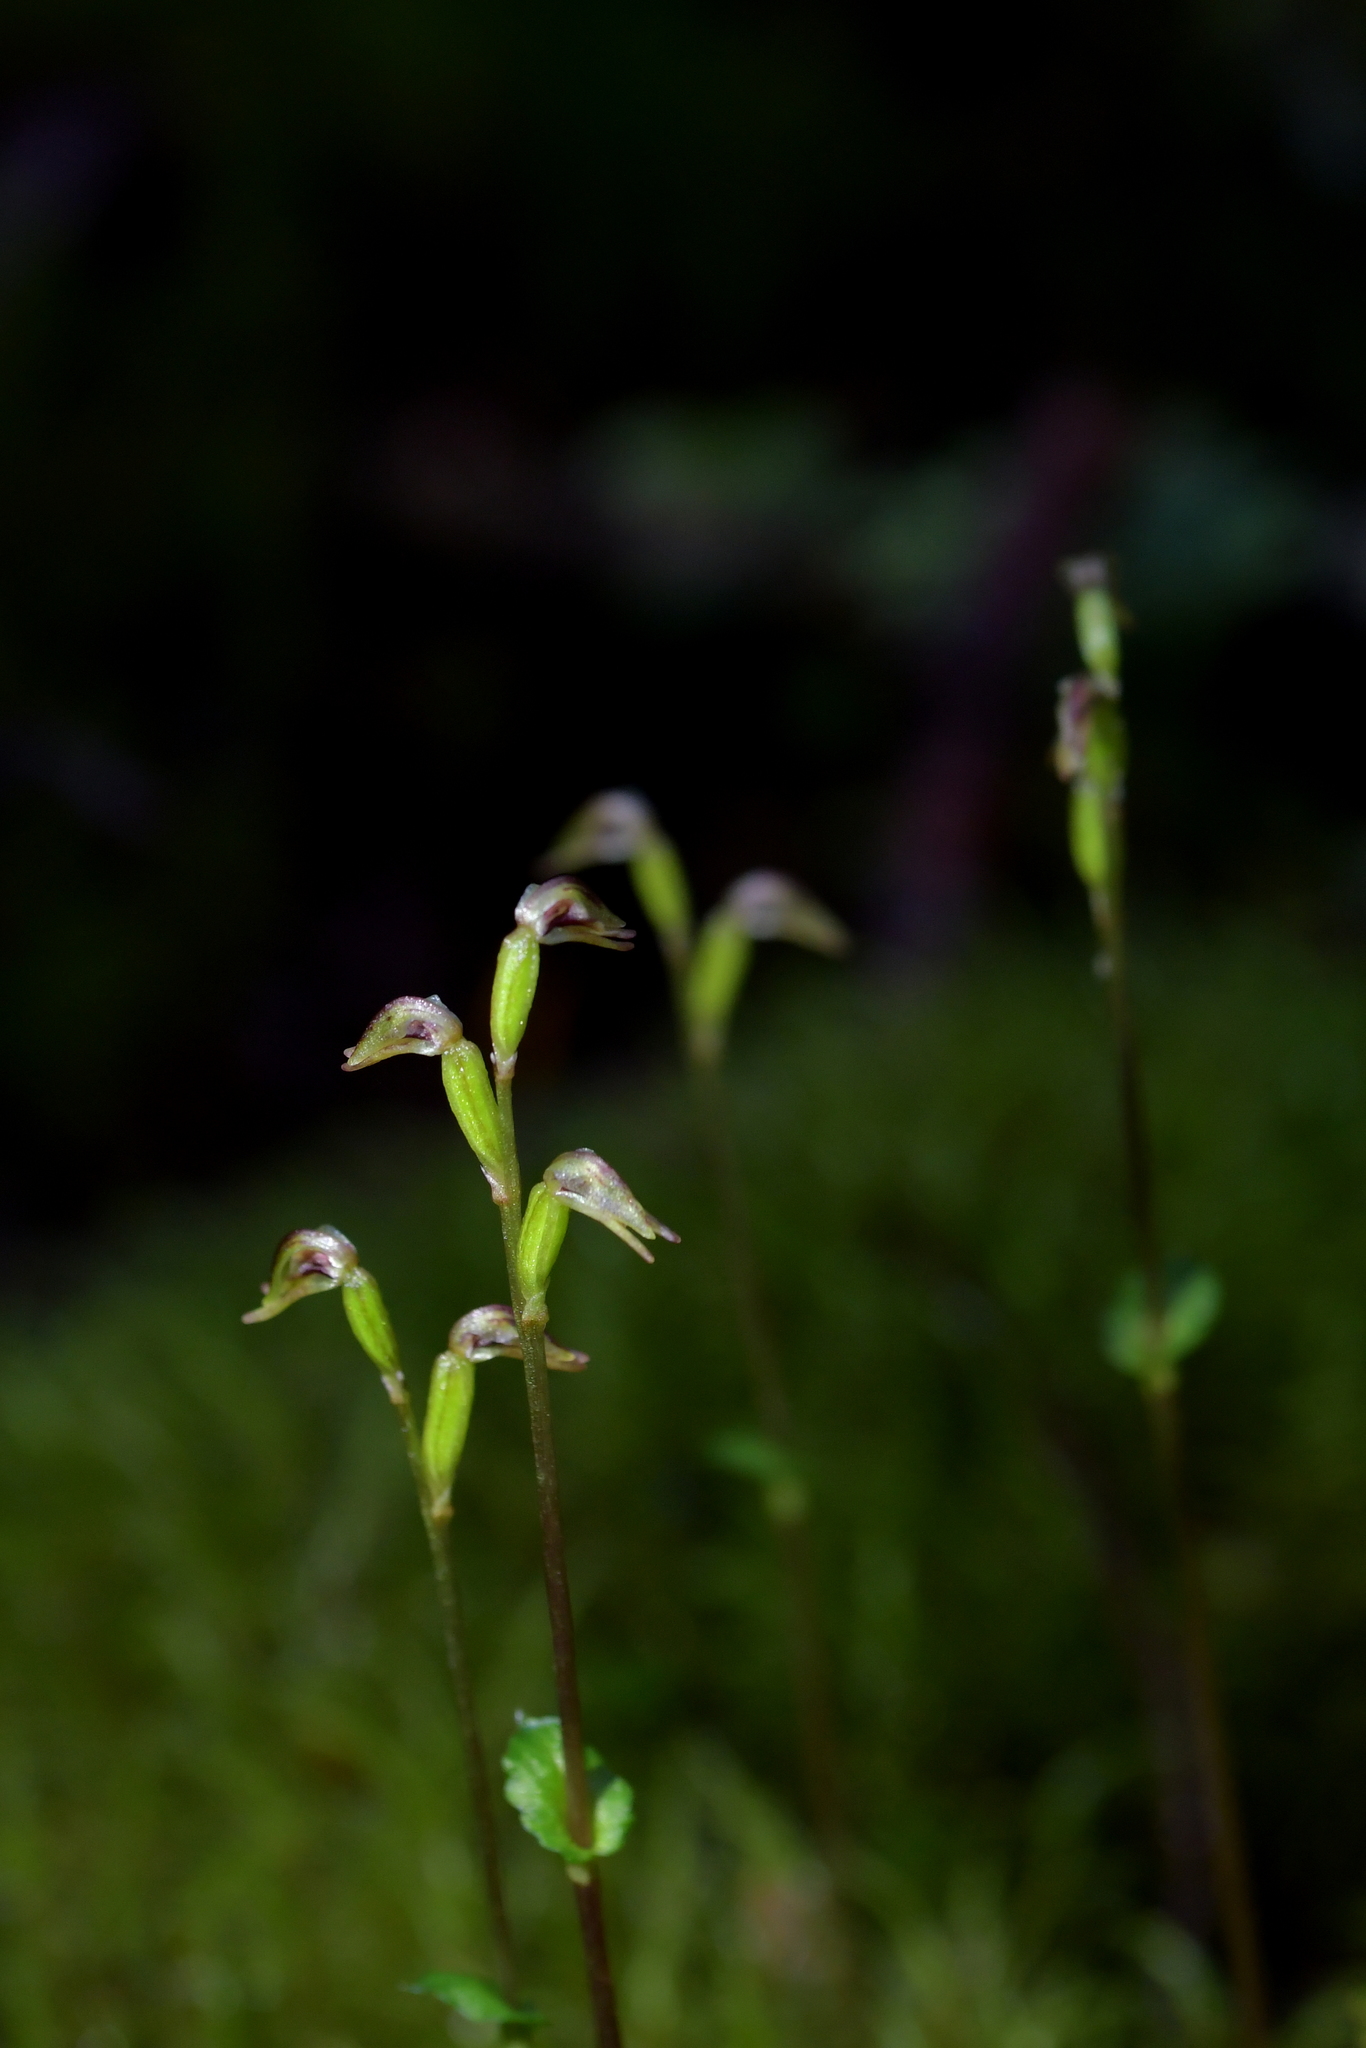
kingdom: Plantae
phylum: Tracheophyta
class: Liliopsida
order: Asparagales
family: Orchidaceae
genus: Townsonia
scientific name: Townsonia deflexa
